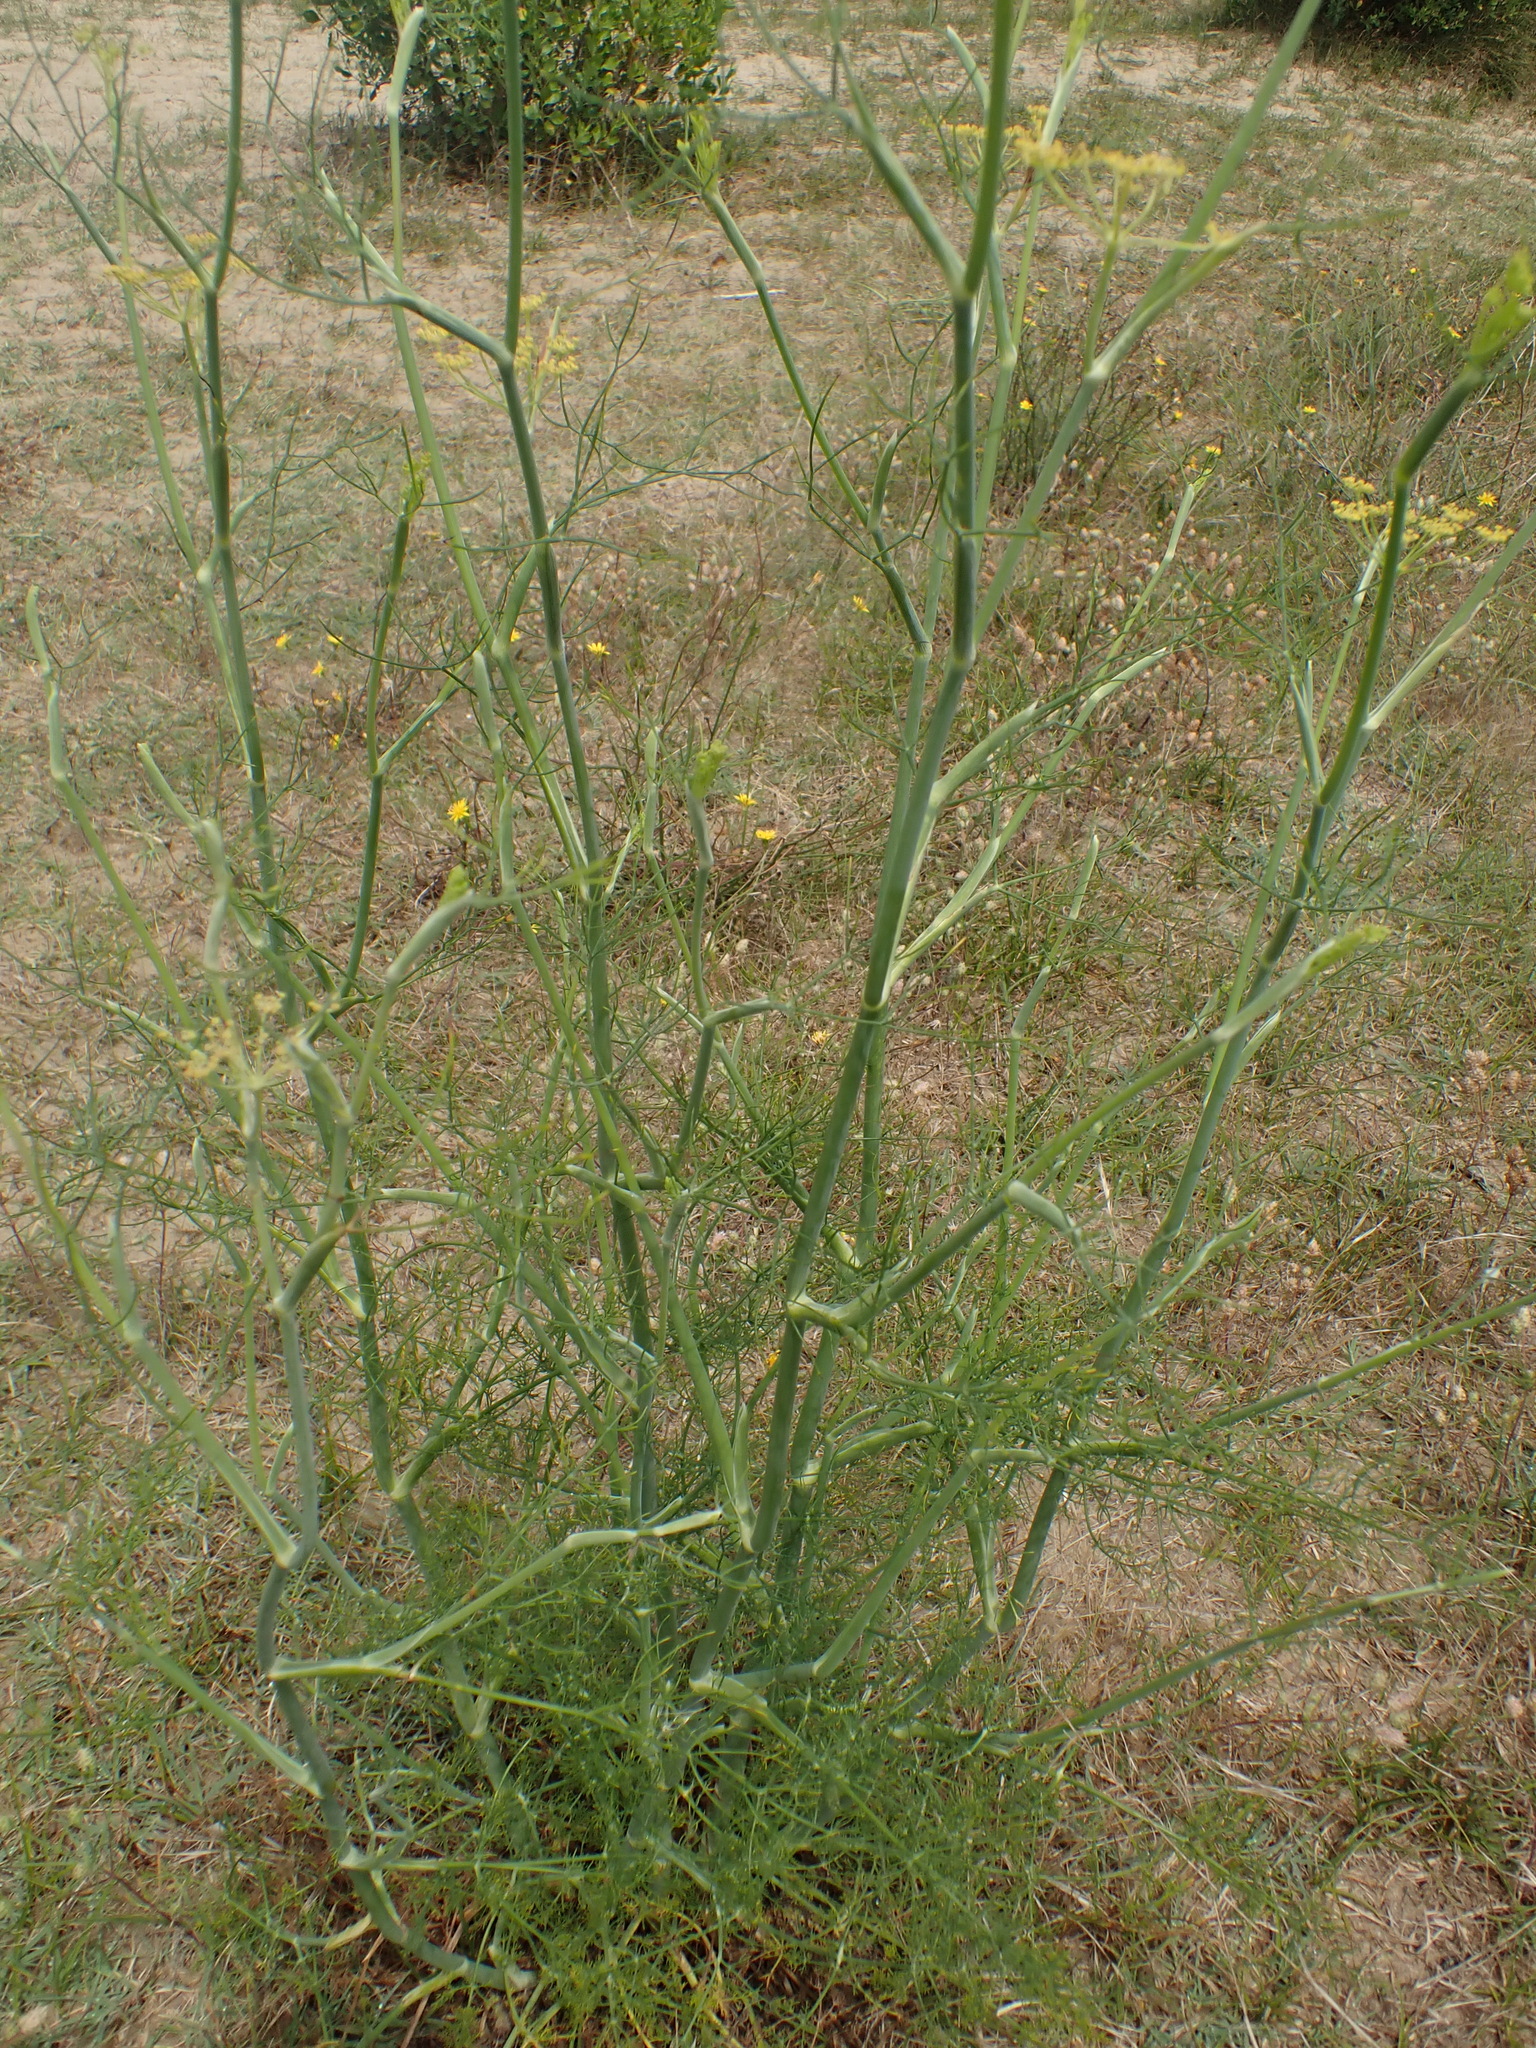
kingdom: Plantae
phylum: Tracheophyta
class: Magnoliopsida
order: Apiales
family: Apiaceae
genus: Foeniculum
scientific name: Foeniculum vulgare
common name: Fennel
